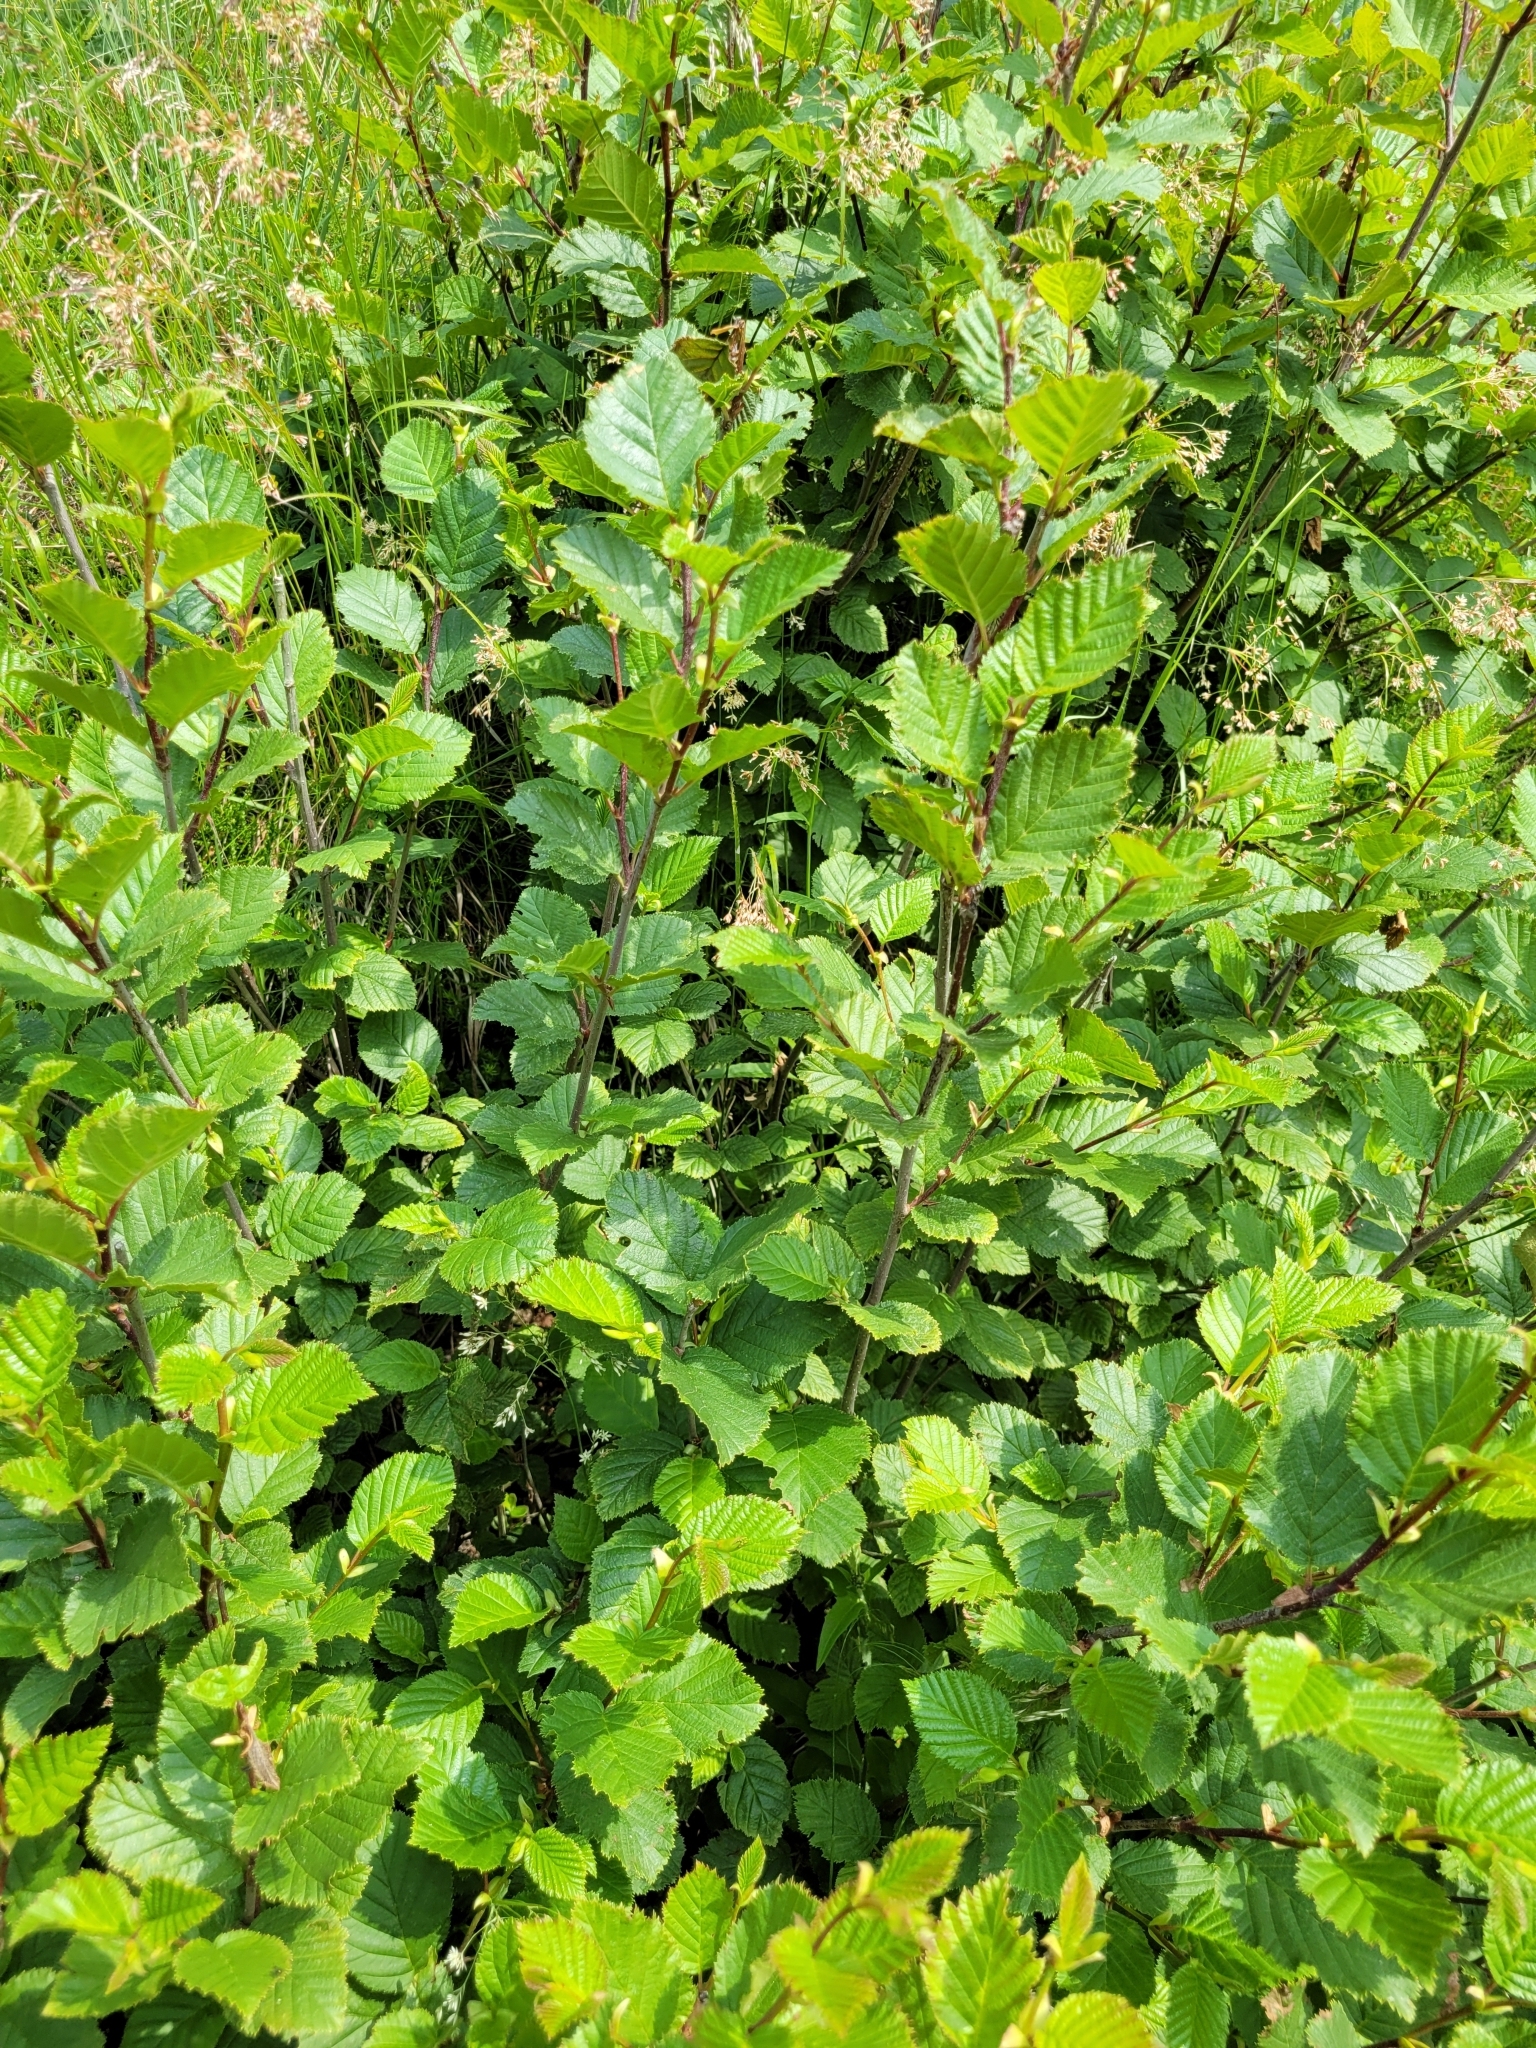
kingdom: Plantae
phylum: Tracheophyta
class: Magnoliopsida
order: Fagales
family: Betulaceae
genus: Alnus
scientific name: Alnus alnobetula
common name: Green alder
